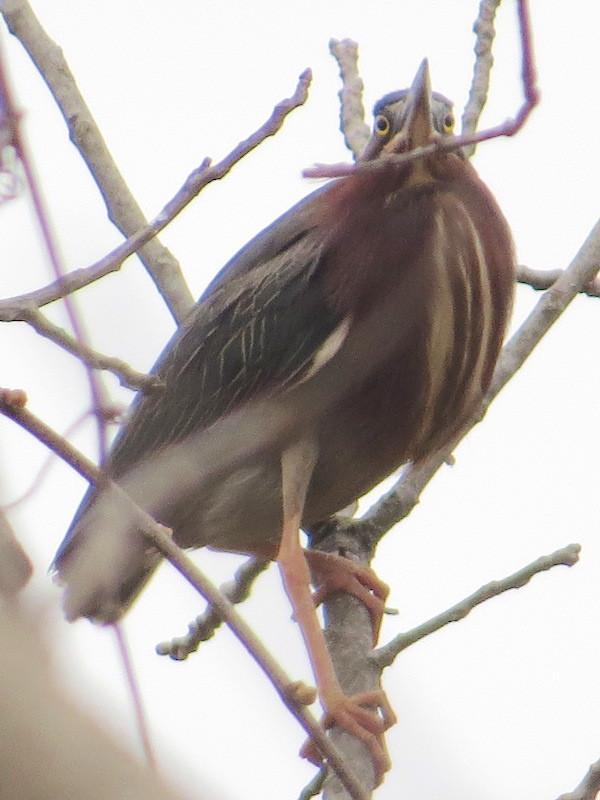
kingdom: Animalia
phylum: Chordata
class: Aves
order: Pelecaniformes
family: Ardeidae
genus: Butorides
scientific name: Butorides virescens
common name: Green heron
